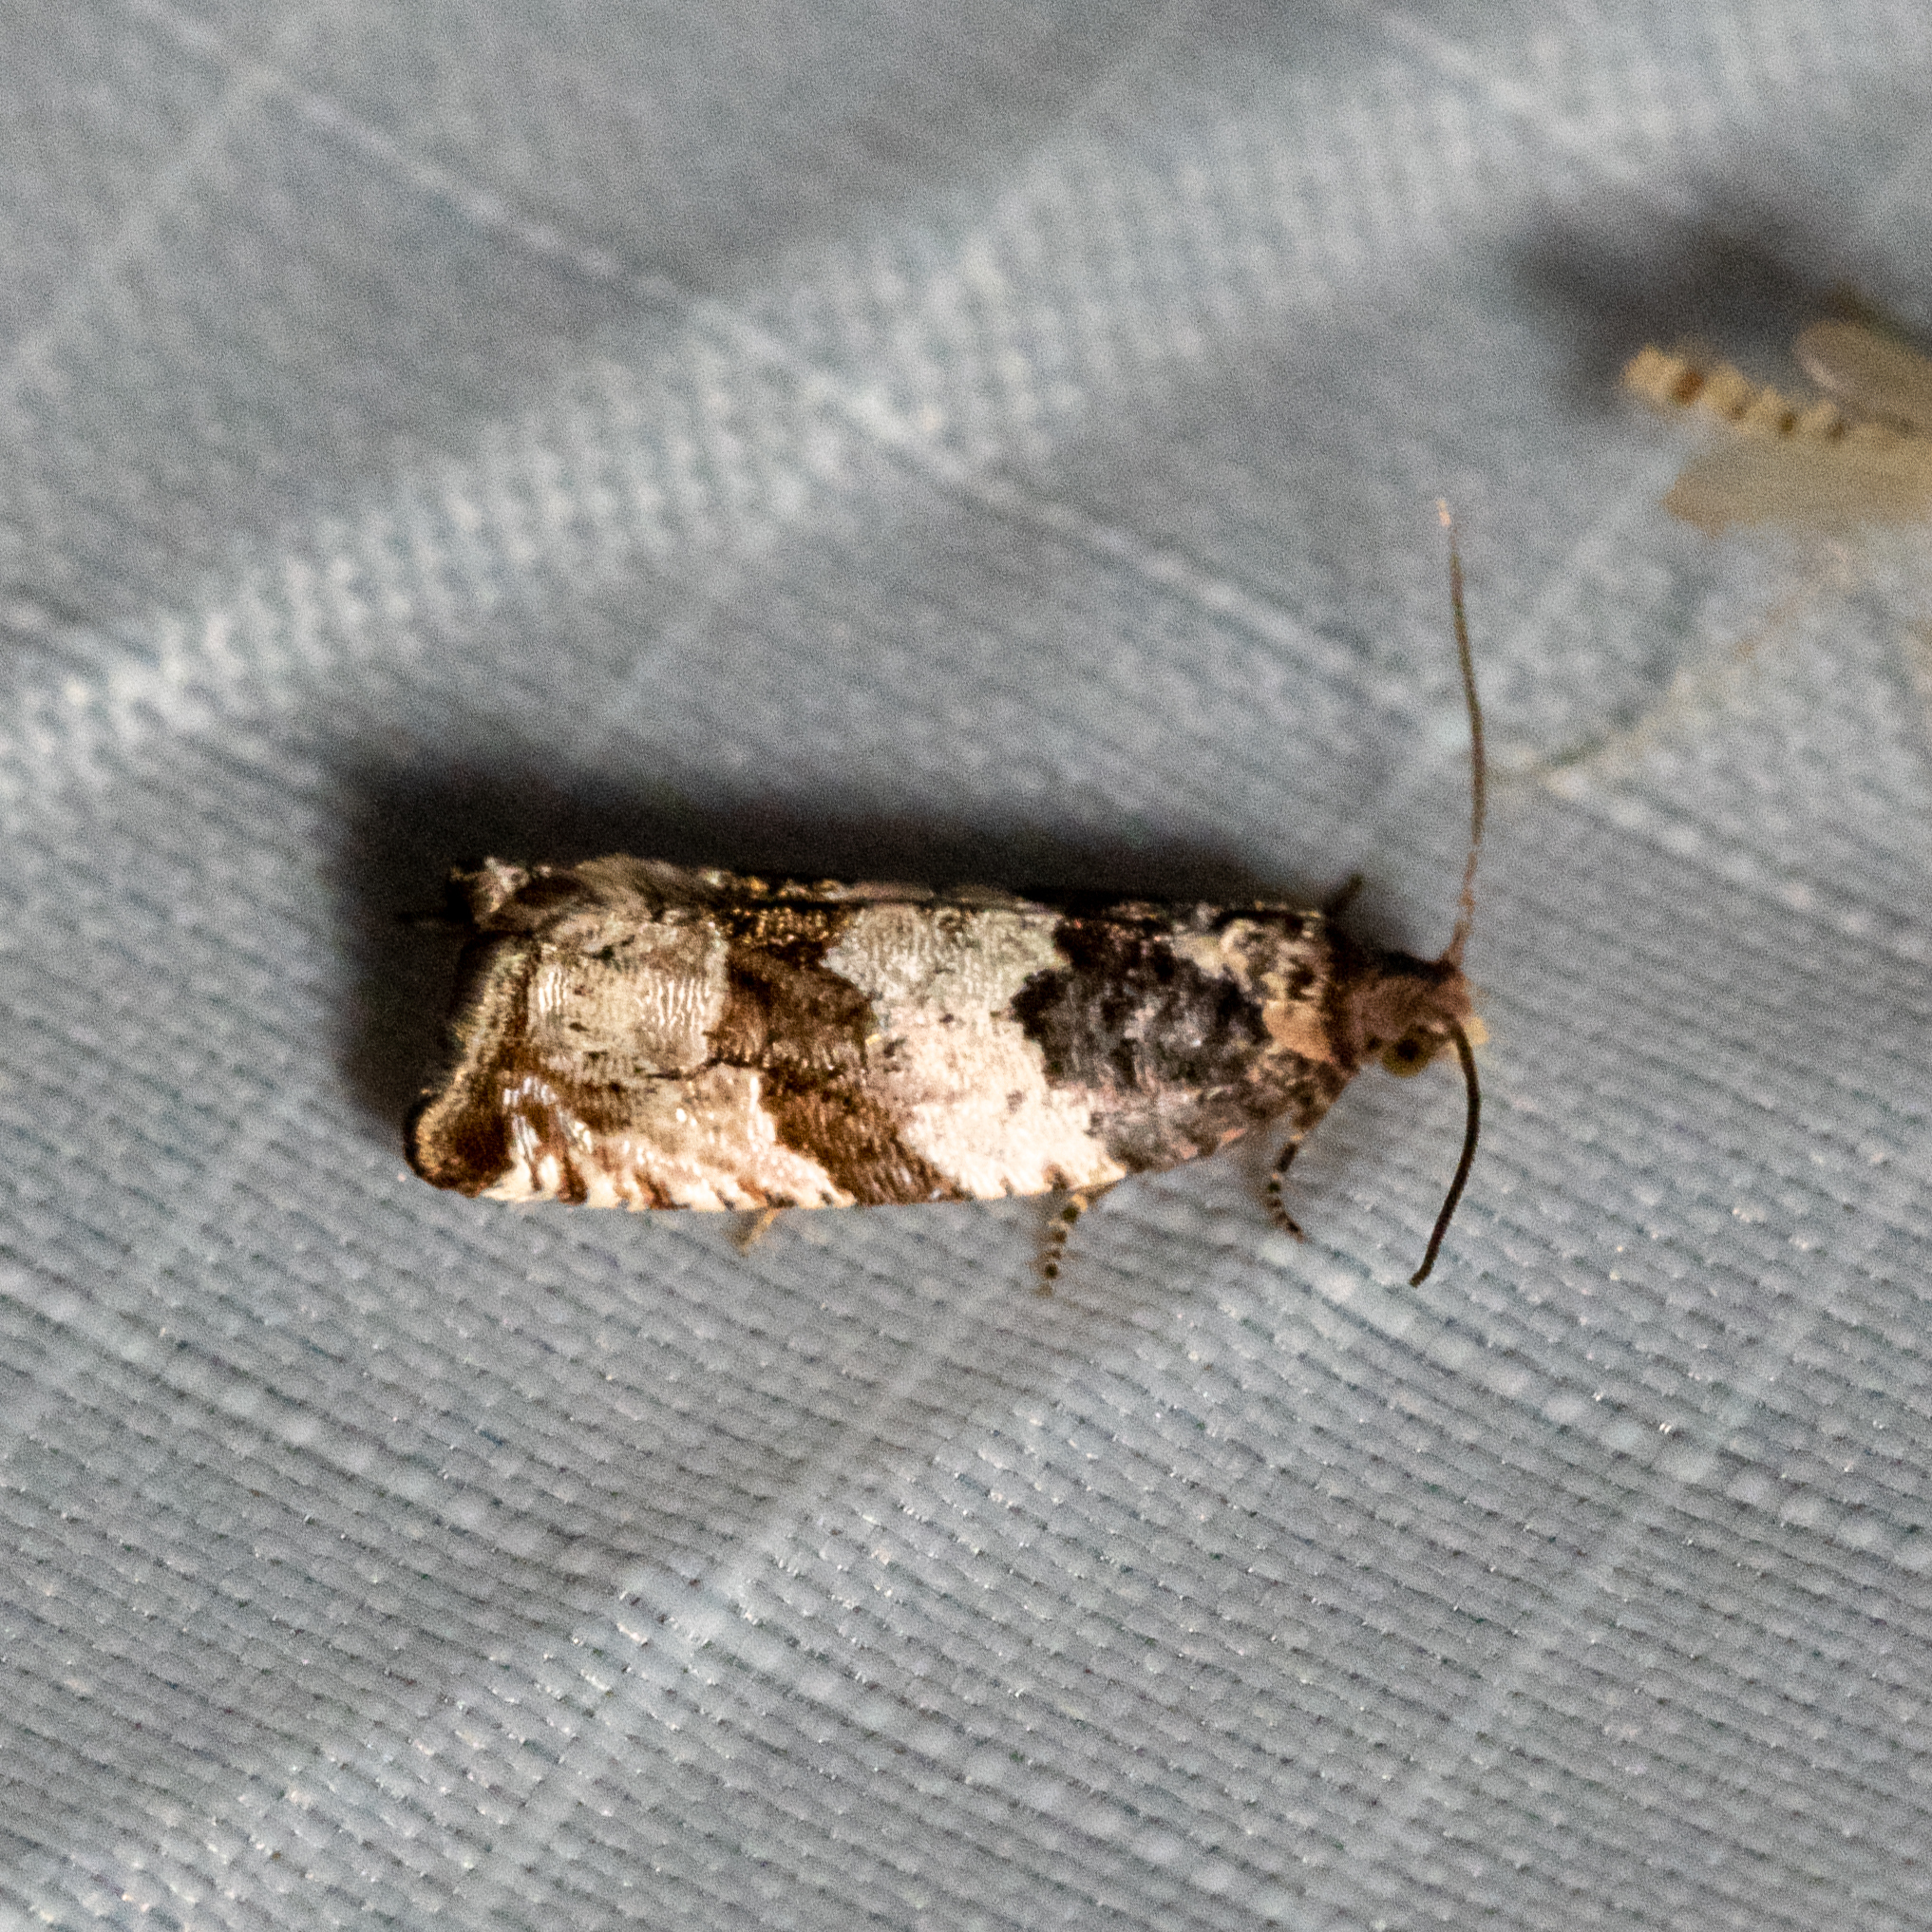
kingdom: Animalia
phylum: Arthropoda
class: Insecta
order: Lepidoptera
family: Tortricidae
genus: Gypsonoma
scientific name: Gypsonoma fasciolana
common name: Willow-and-poplar leafroller
